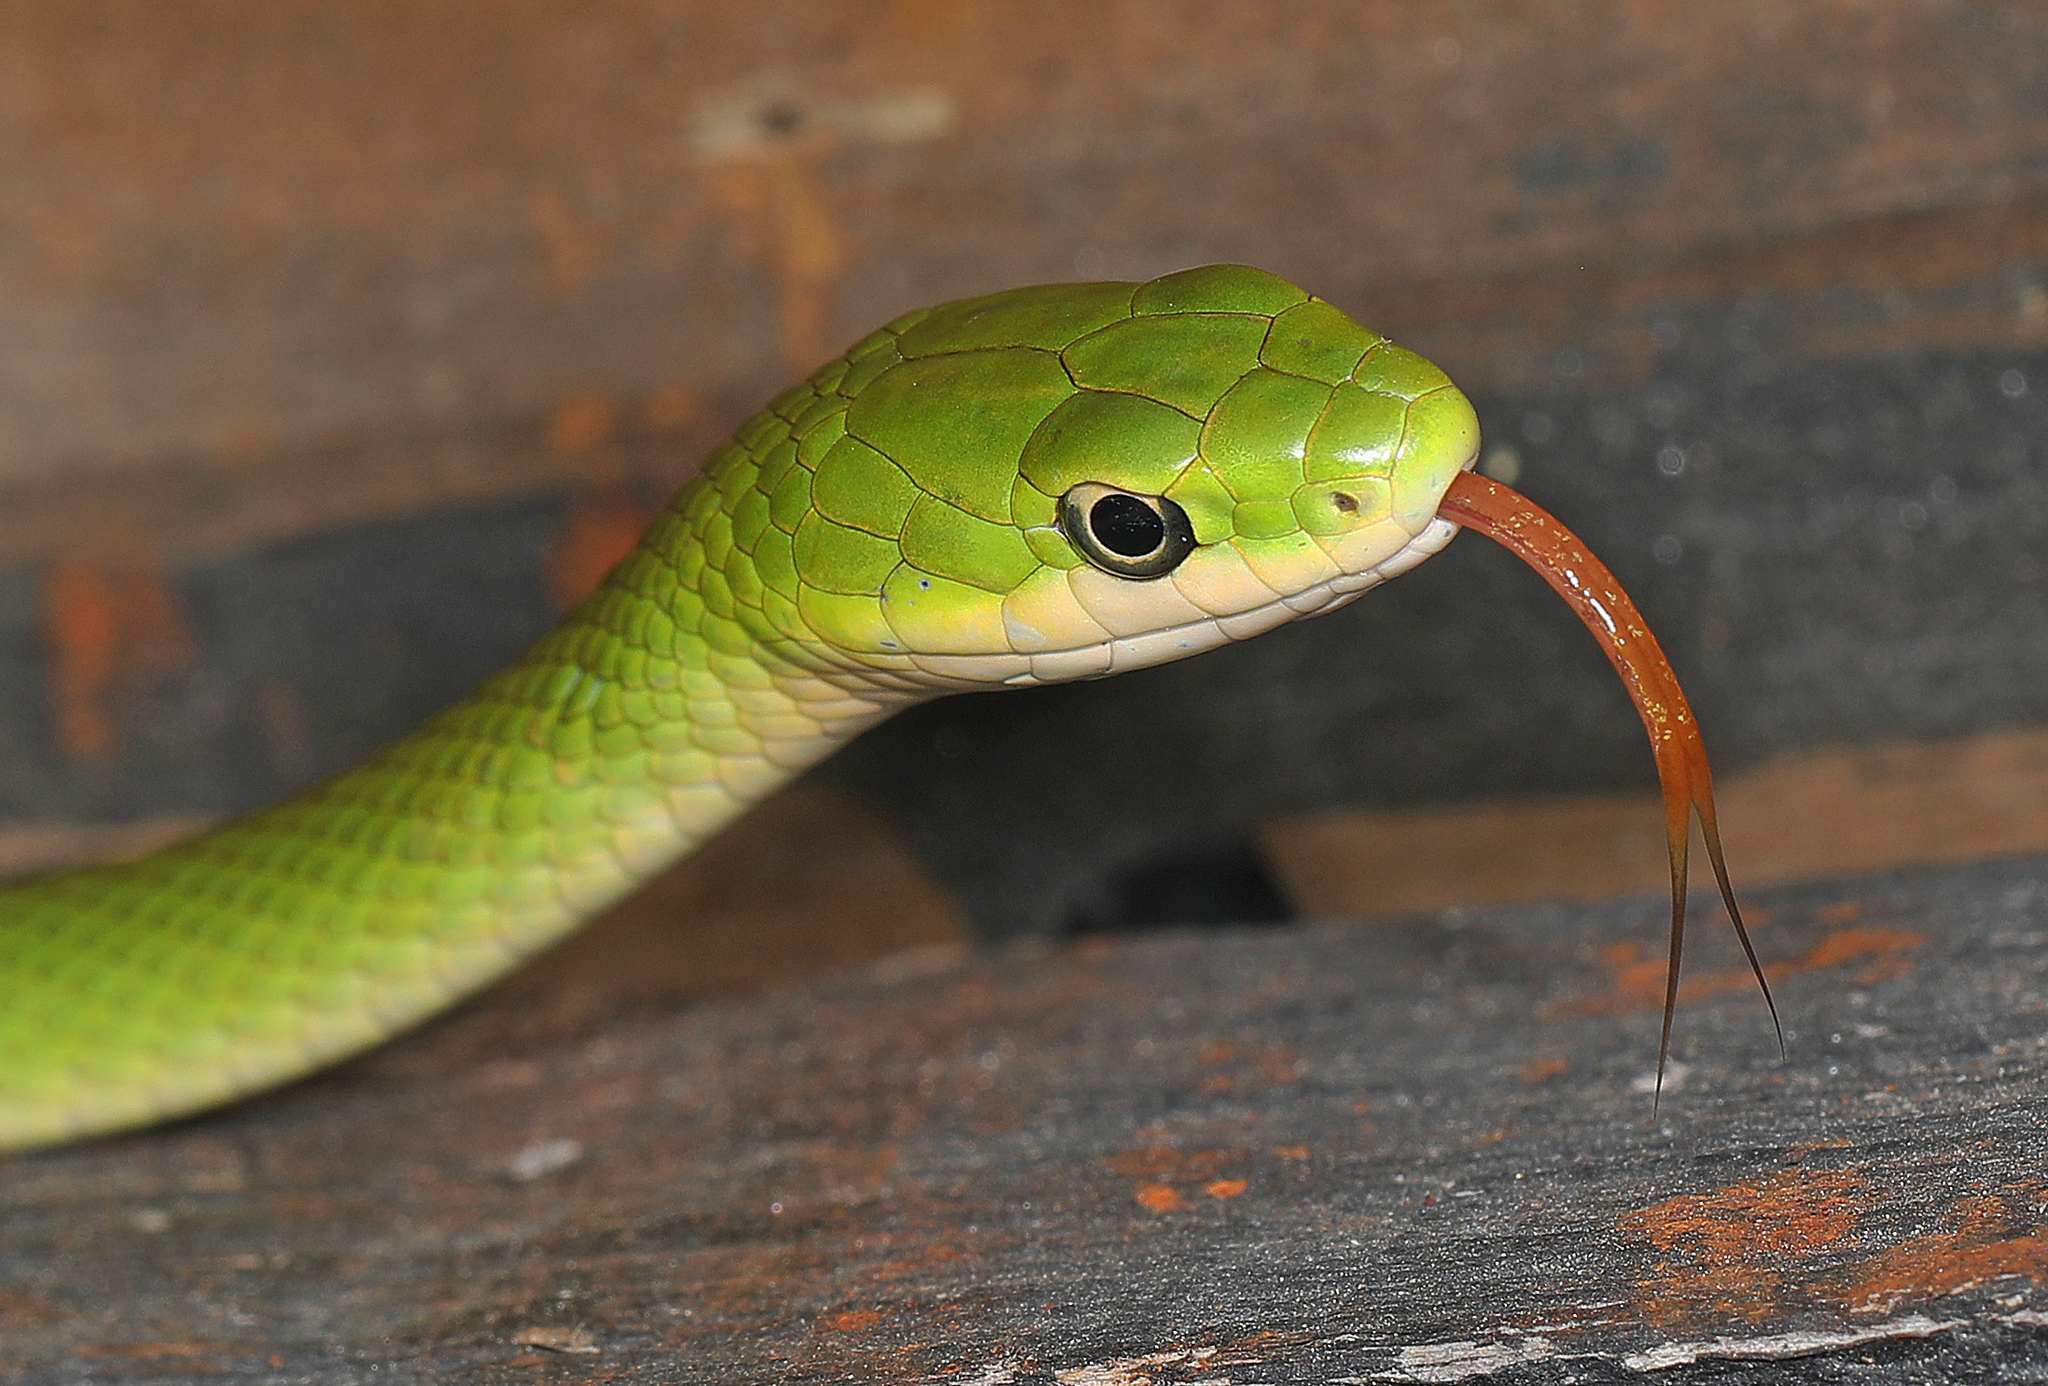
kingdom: Animalia
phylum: Chordata
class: Squamata
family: Colubridae
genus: Opheodrys
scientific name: Opheodrys aestivus
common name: Rough greensnake
